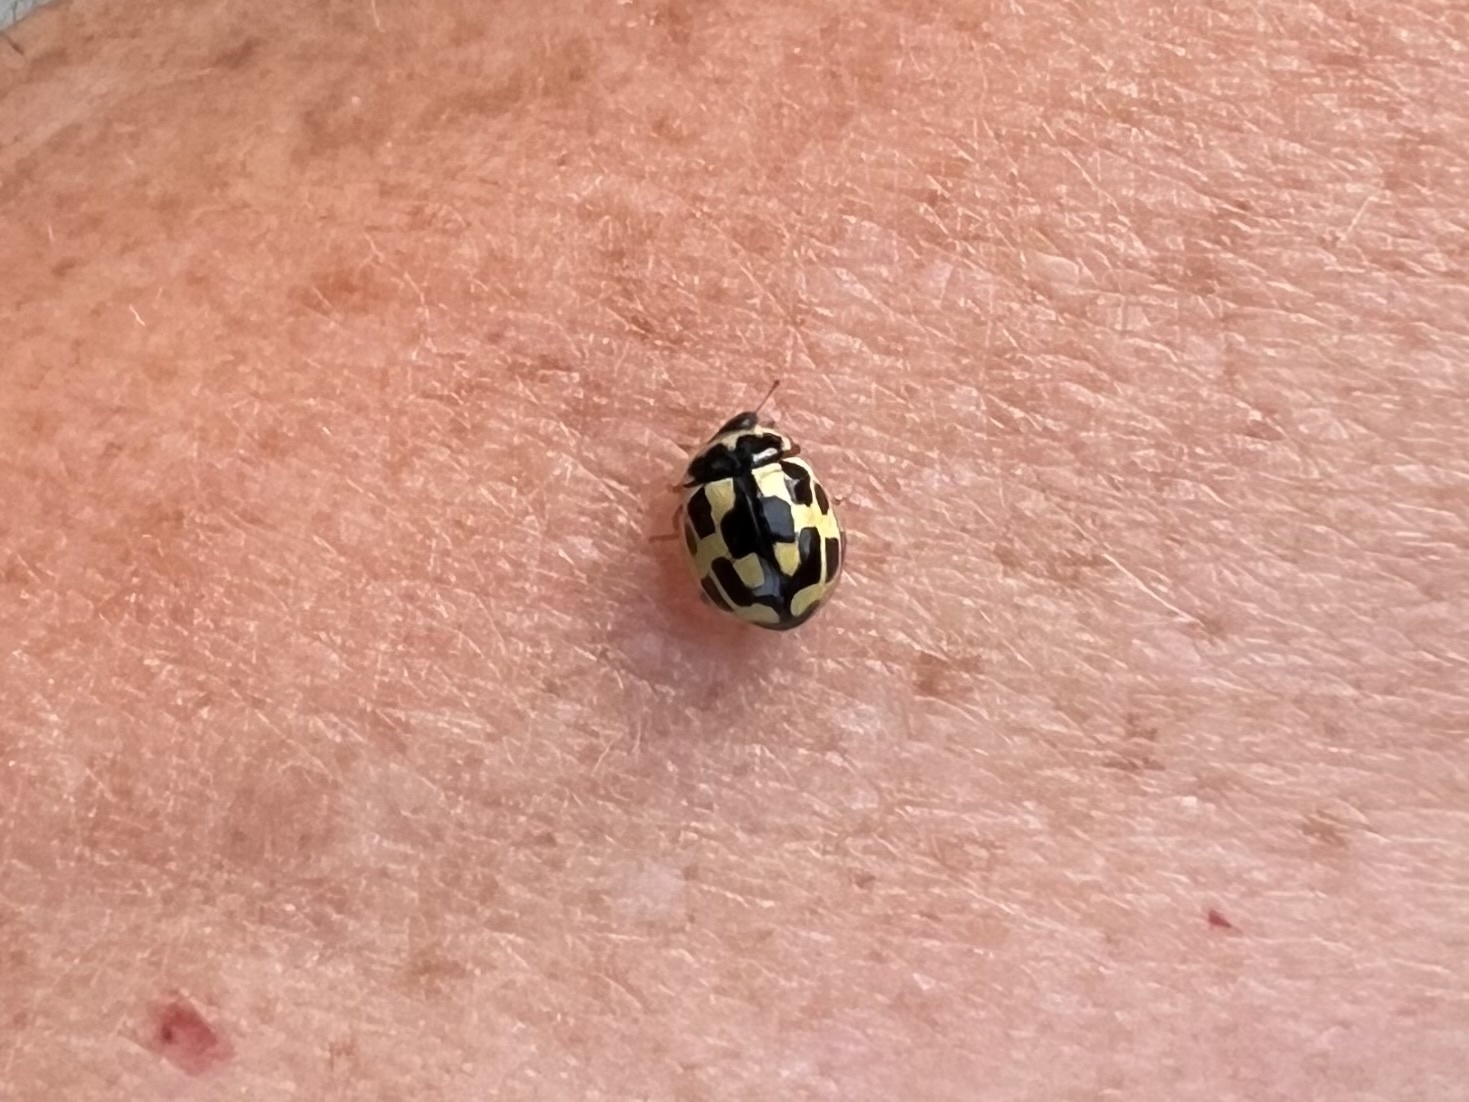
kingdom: Animalia
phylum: Arthropoda
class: Insecta
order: Coleoptera
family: Coccinellidae
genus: Propylaea
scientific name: Propylaea quatuordecimpunctata
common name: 14-spotted ladybird beetle
